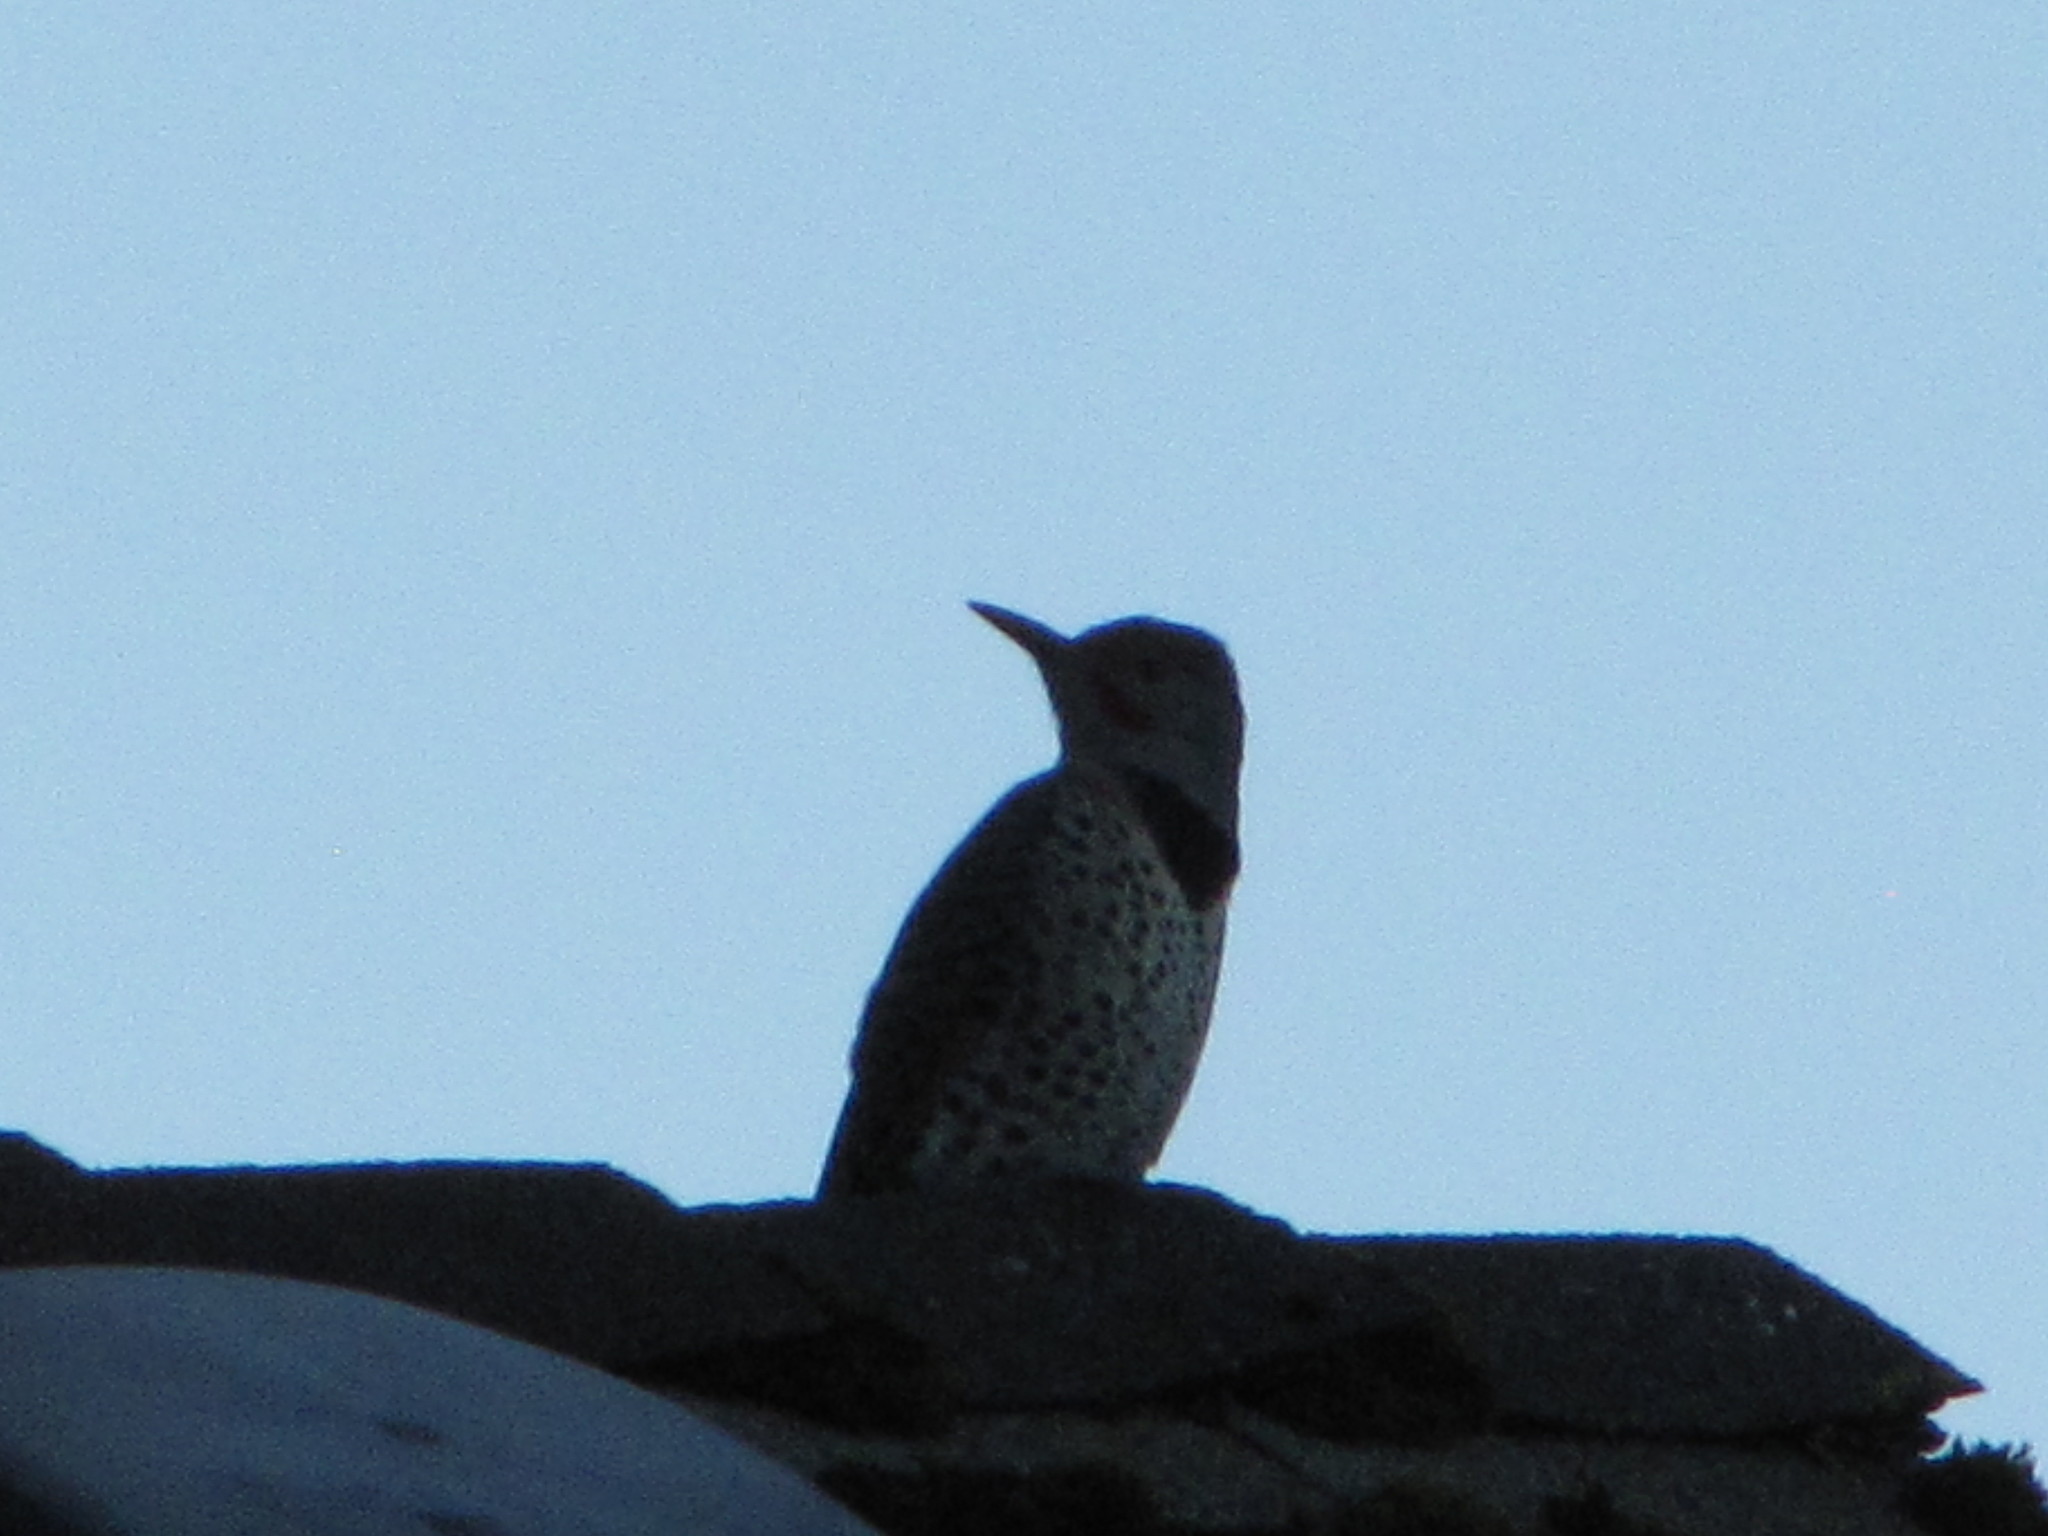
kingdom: Animalia
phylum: Chordata
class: Aves
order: Piciformes
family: Picidae
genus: Colaptes
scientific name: Colaptes auratus
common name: Northern flicker
